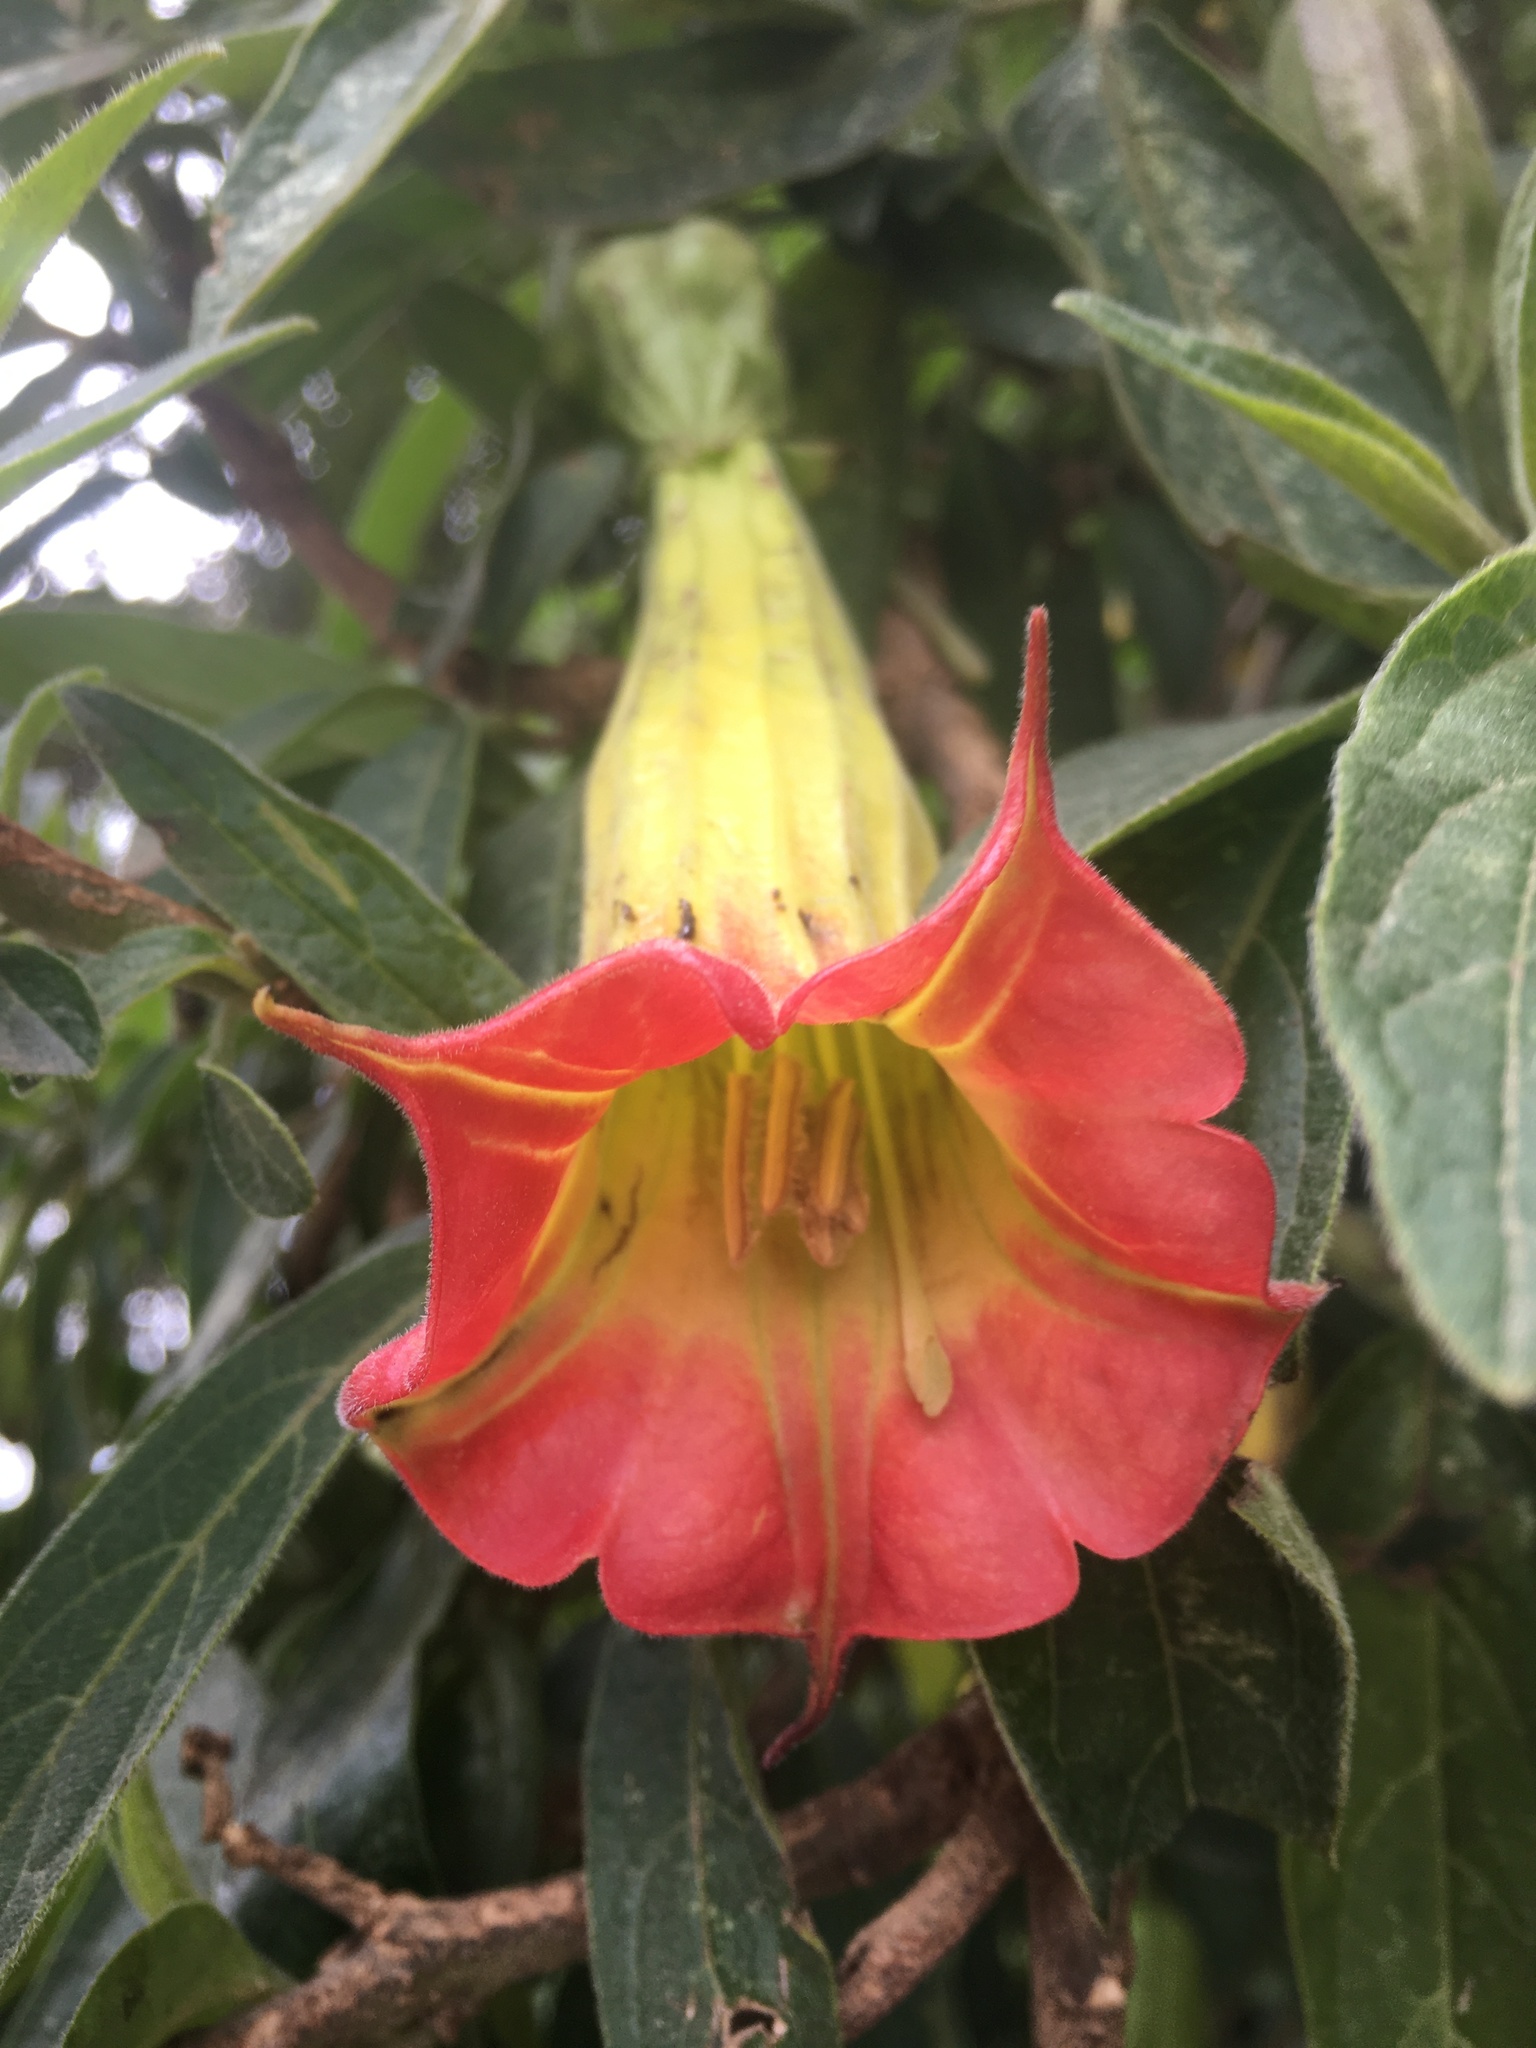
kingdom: Plantae
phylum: Tracheophyta
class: Magnoliopsida
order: Solanales
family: Solanaceae
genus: Brugmansia
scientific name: Brugmansia sanguinea
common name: Red floripontio
